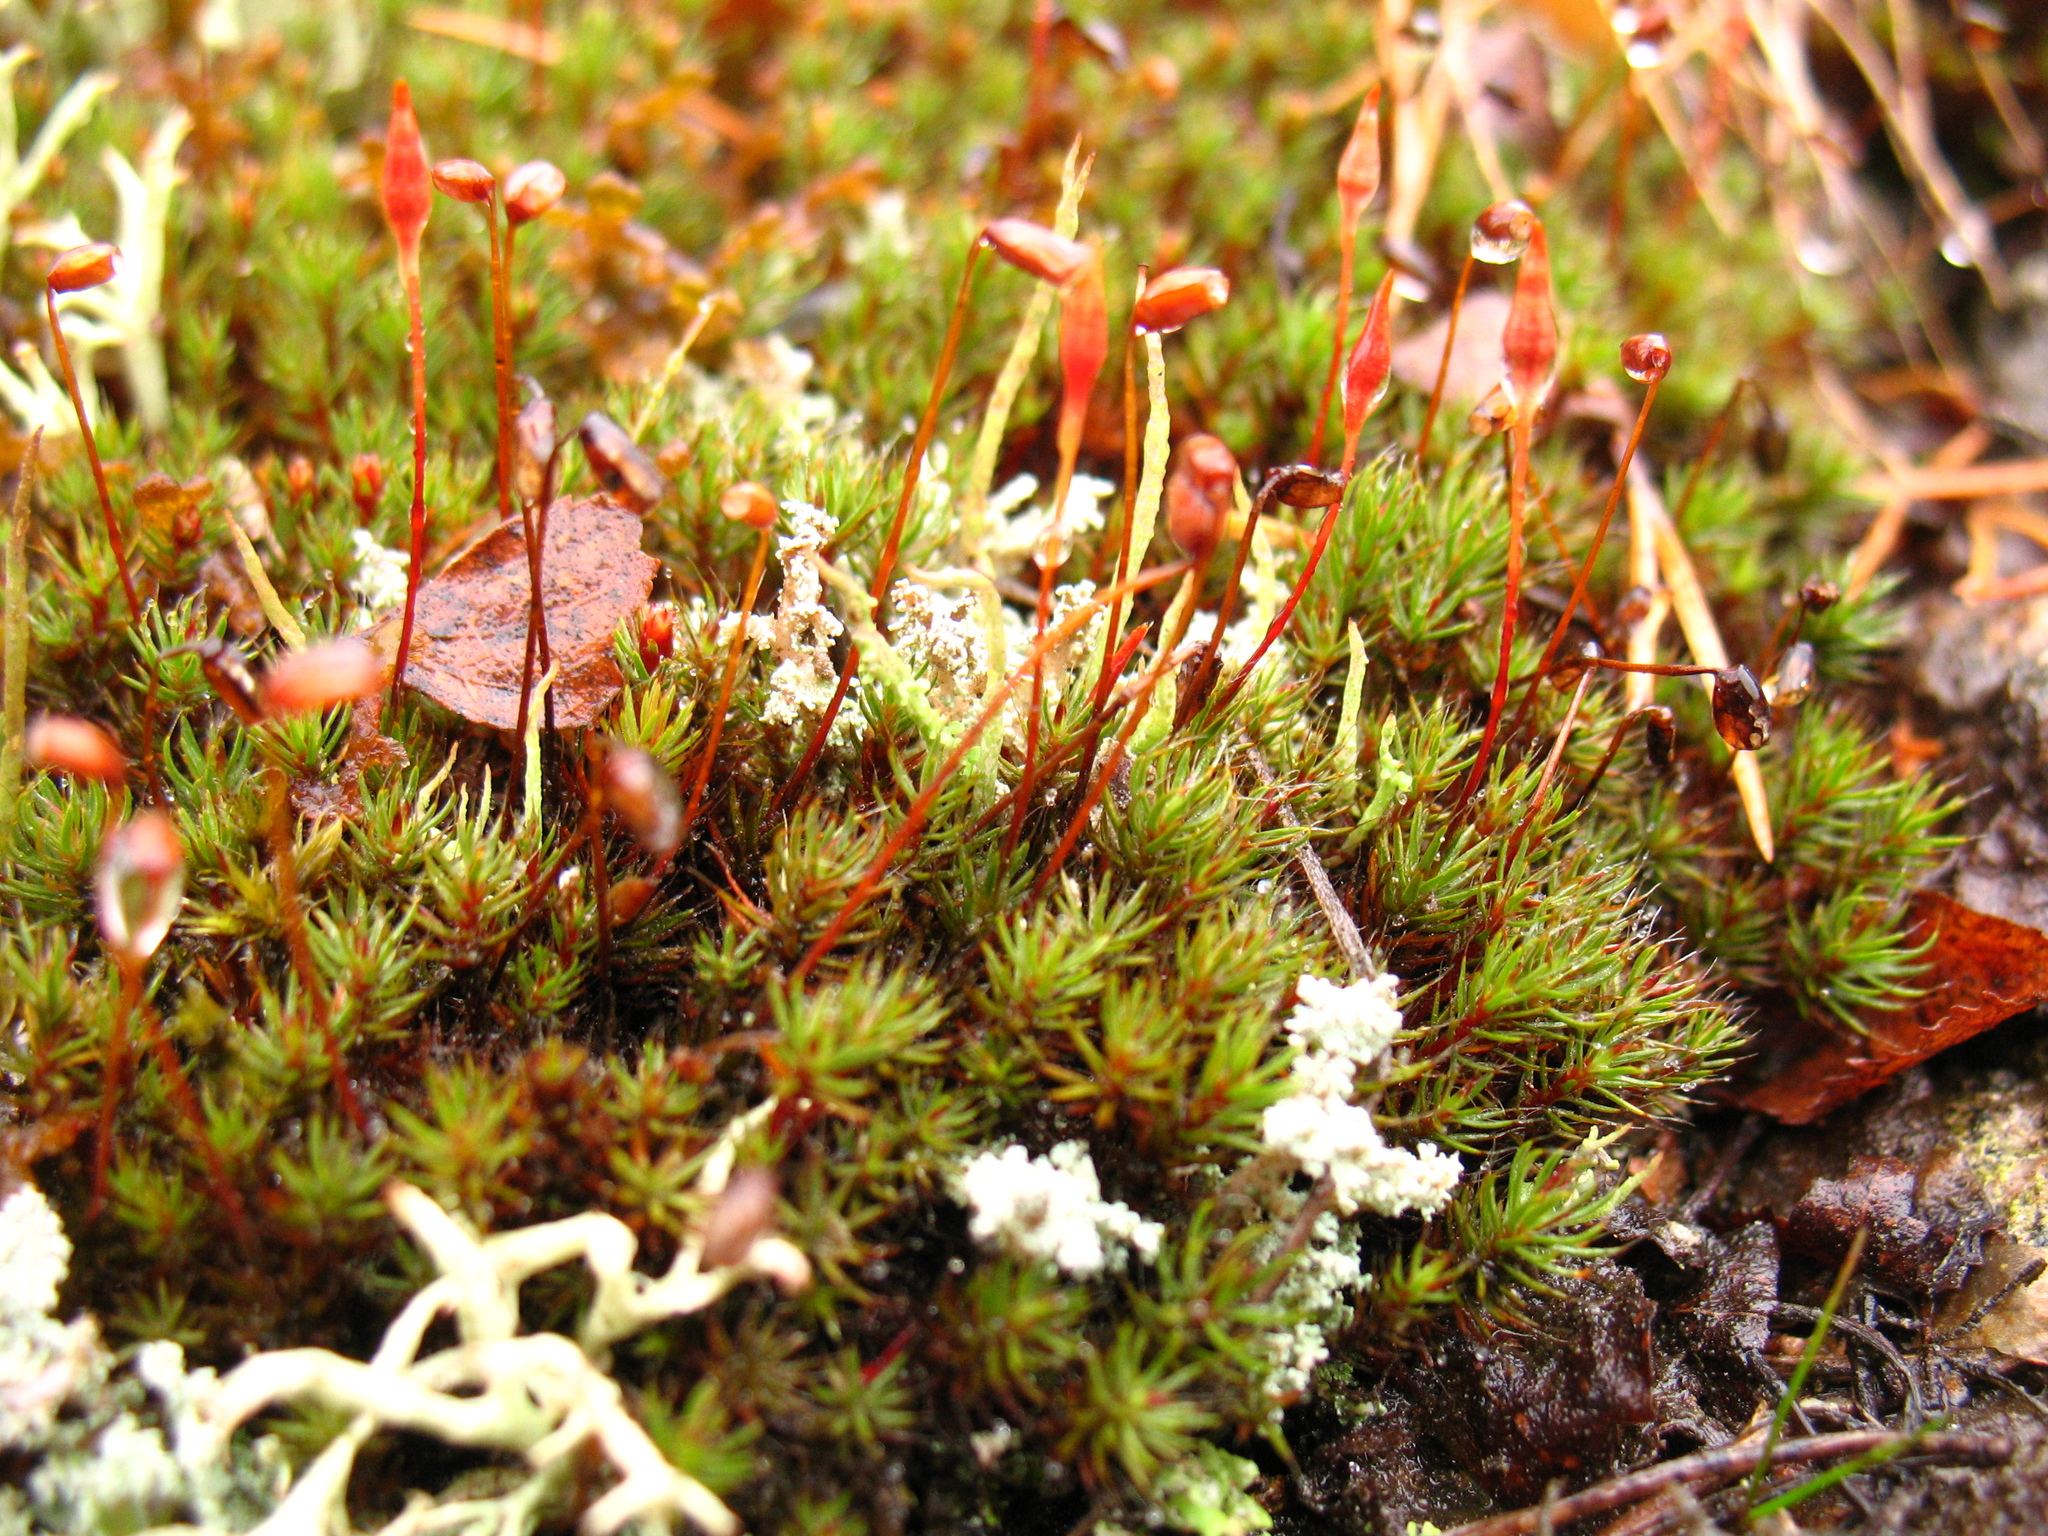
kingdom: Plantae
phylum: Bryophyta
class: Polytrichopsida
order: Polytrichales
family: Polytrichaceae
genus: Polytrichum
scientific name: Polytrichum piliferum
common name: Bristly haircap
